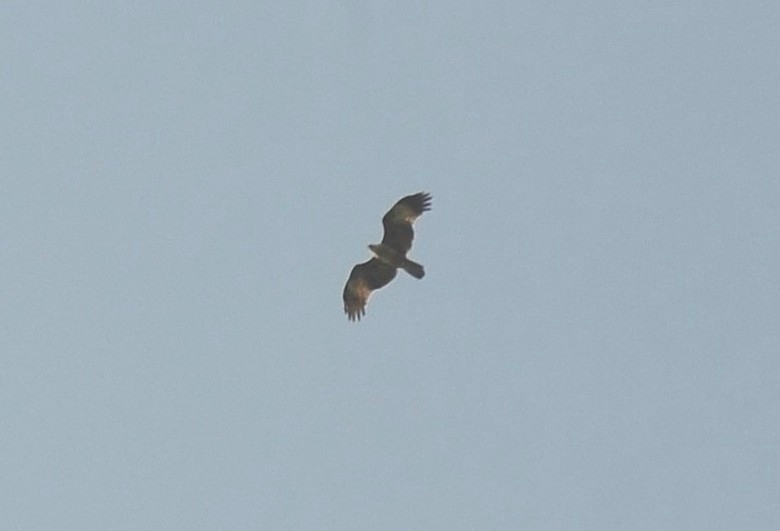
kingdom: Animalia
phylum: Chordata
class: Aves
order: Accipitriformes
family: Accipitridae
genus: Haliastur
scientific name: Haliastur indus
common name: Brahminy kite
